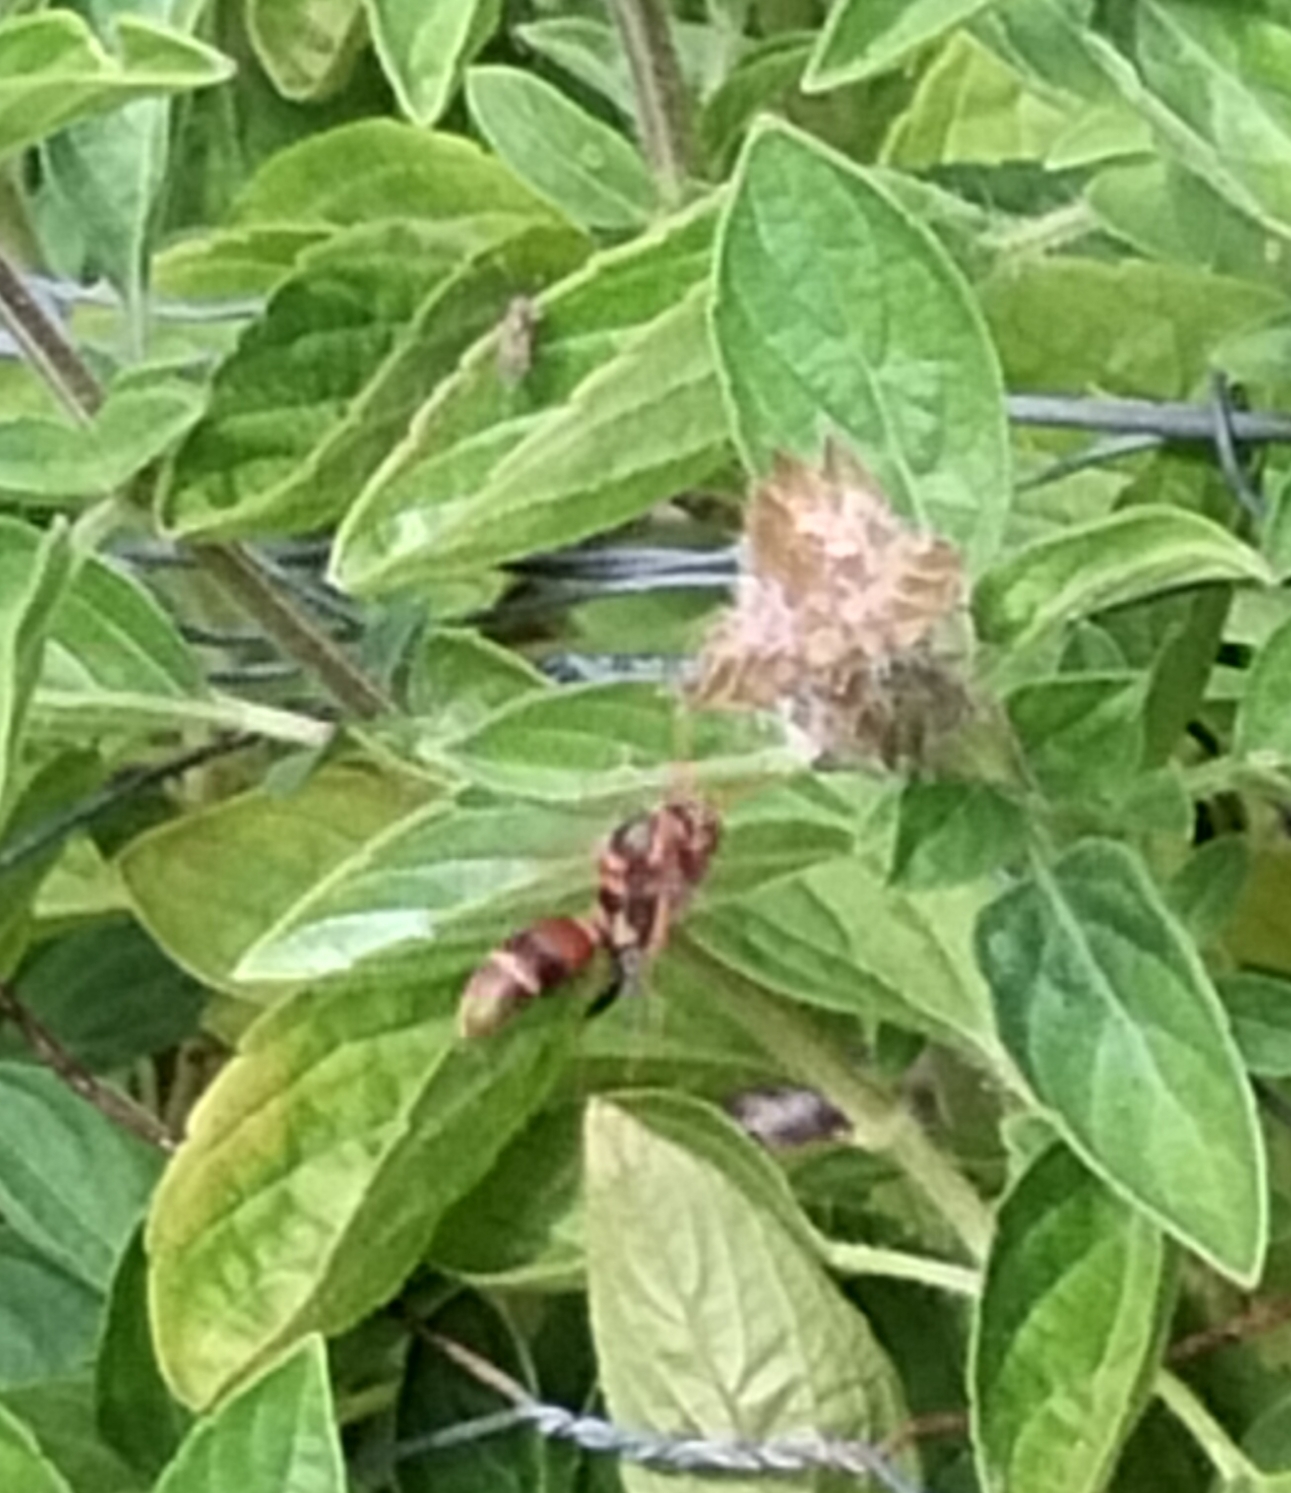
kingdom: Animalia
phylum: Arthropoda
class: Insecta
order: Hymenoptera
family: Eumenidae
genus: Polistes
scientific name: Polistes humilis
